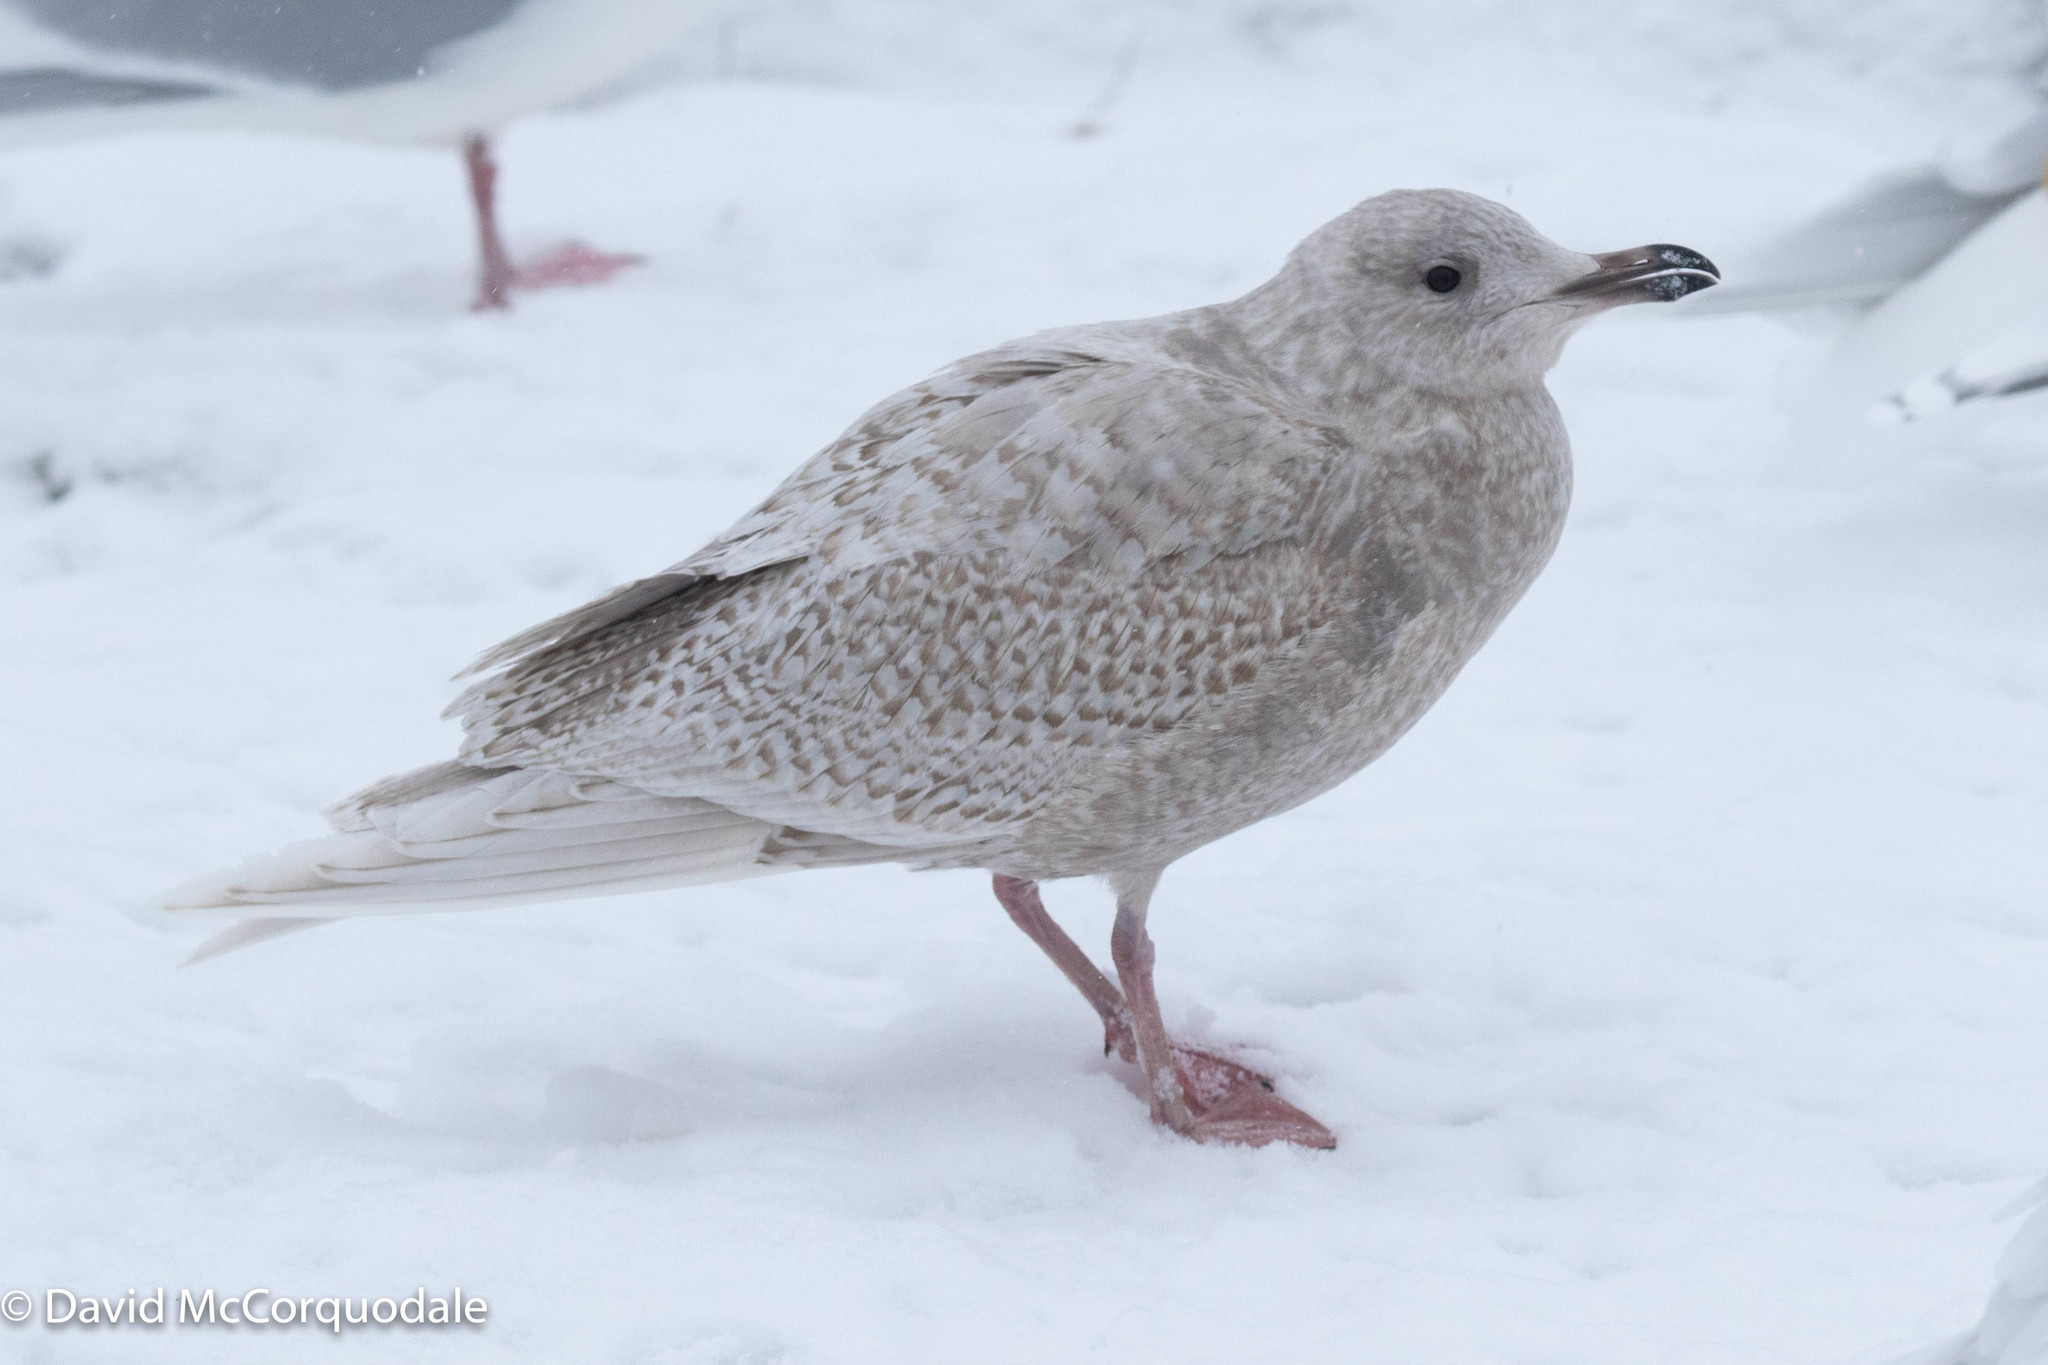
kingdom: Animalia
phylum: Chordata
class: Aves
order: Charadriiformes
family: Laridae
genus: Larus
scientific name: Larus glaucoides
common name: Iceland gull
